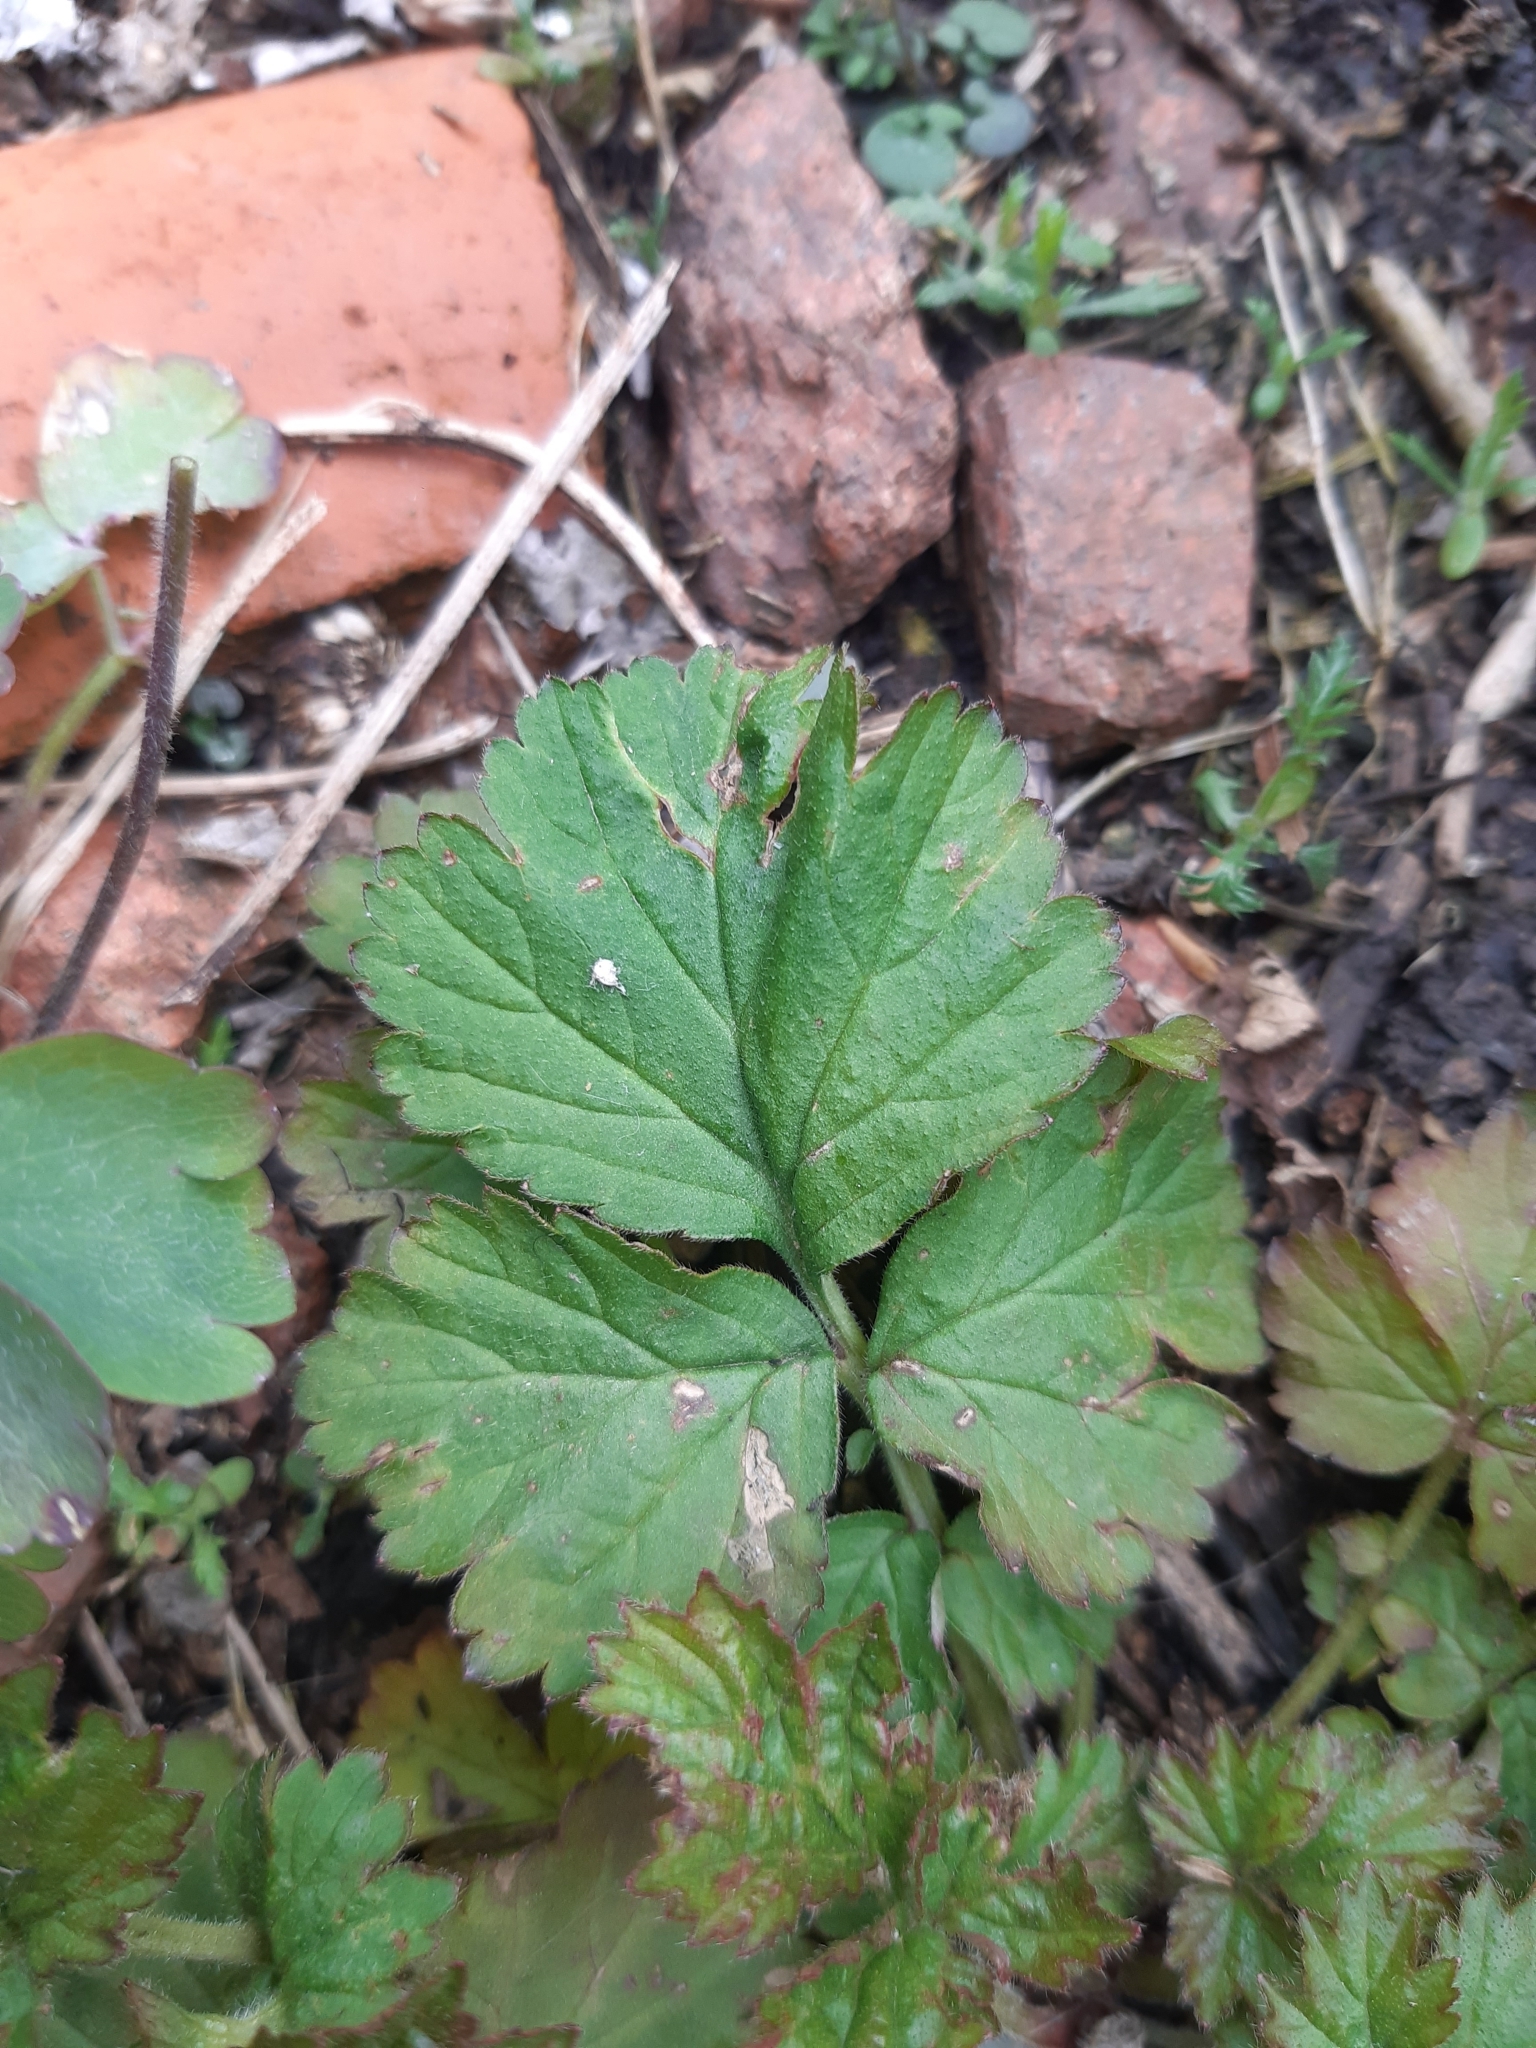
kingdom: Plantae
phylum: Tracheophyta
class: Magnoliopsida
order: Rosales
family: Rosaceae
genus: Geum
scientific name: Geum urbanum
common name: Wood avens
